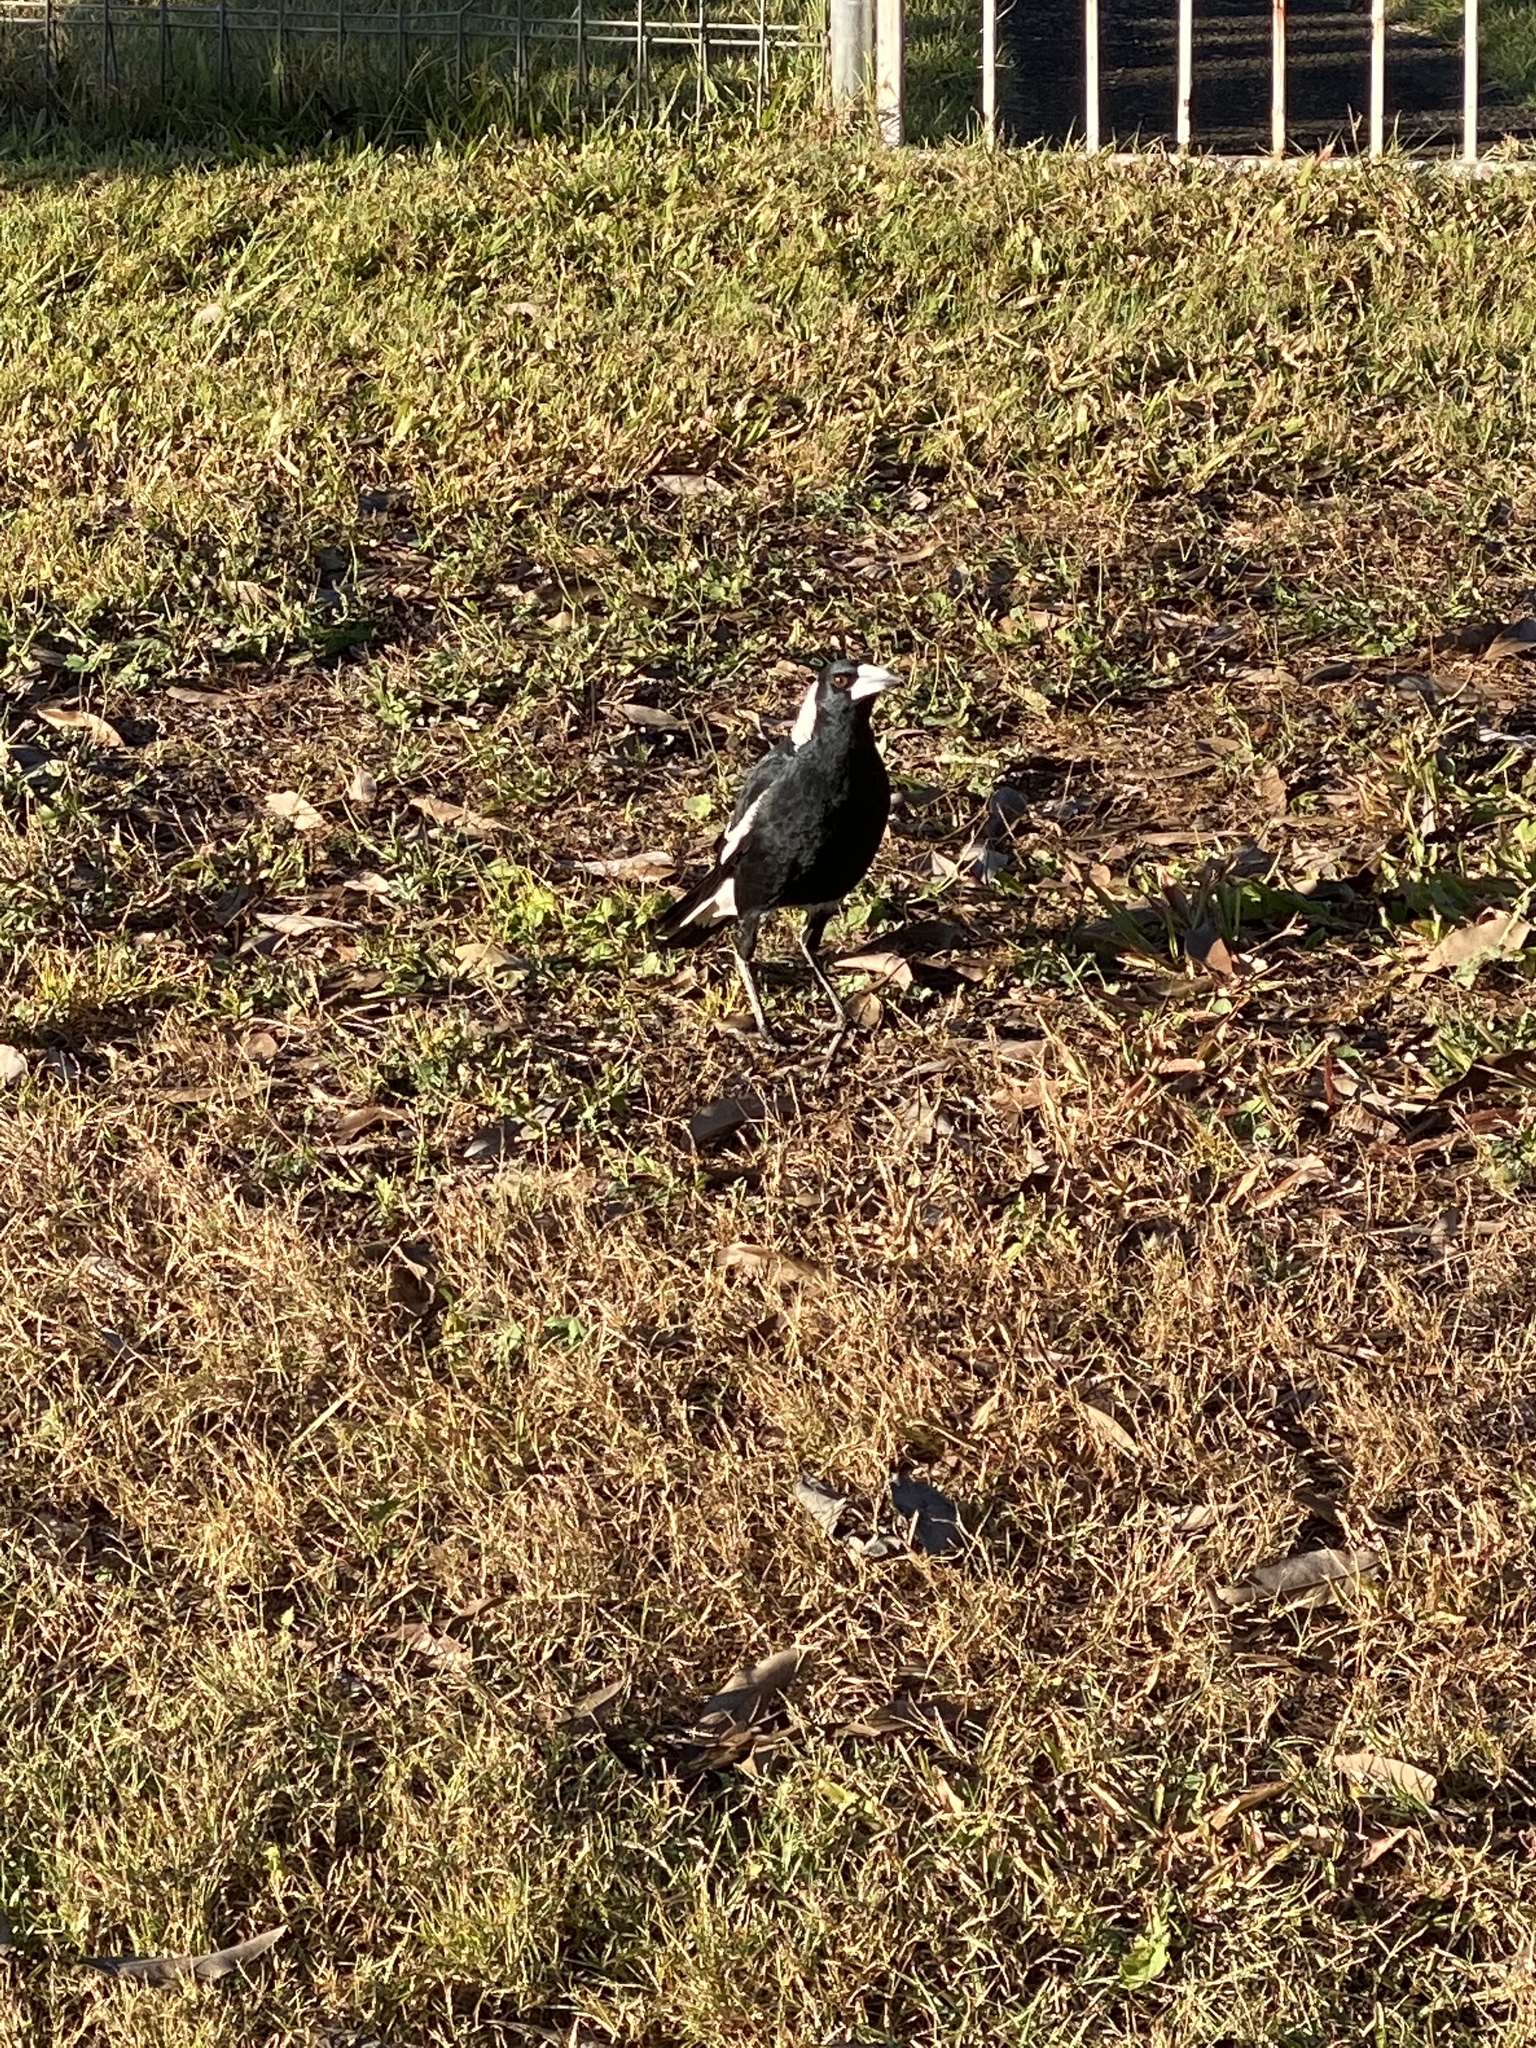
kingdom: Animalia
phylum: Chordata
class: Aves
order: Passeriformes
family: Cracticidae
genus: Gymnorhina
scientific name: Gymnorhina tibicen
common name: Australian magpie
